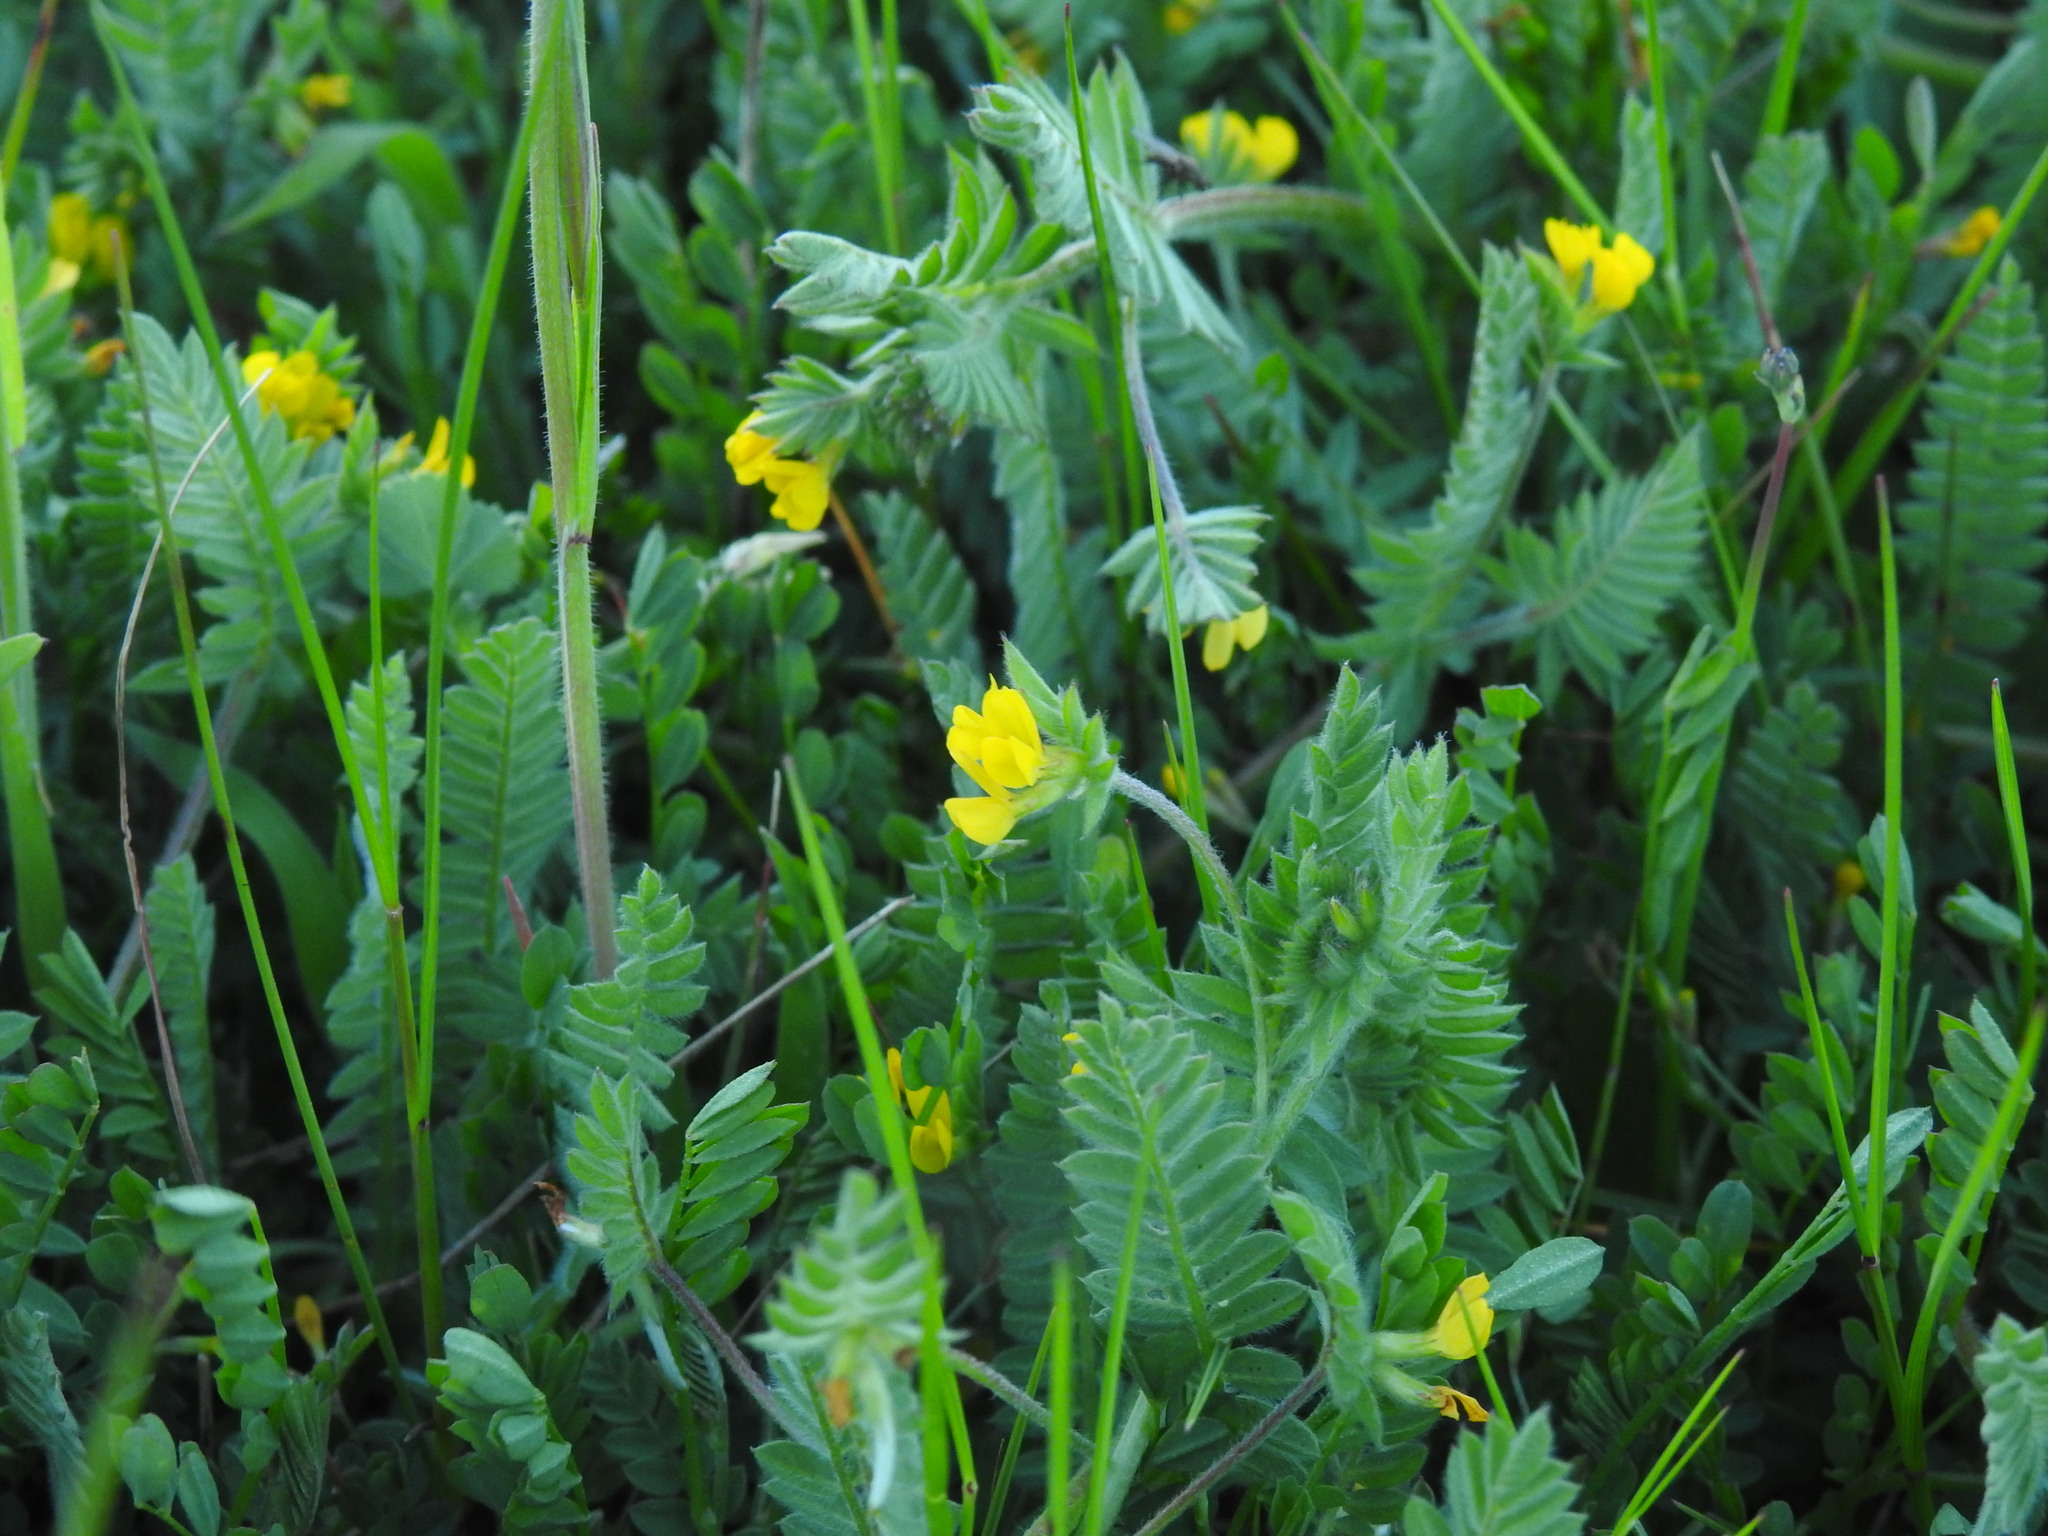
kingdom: Plantae
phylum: Tracheophyta
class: Magnoliopsida
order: Fabales
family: Fabaceae
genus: Ornithopus
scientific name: Ornithopus compressus
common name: Yellow serradella
